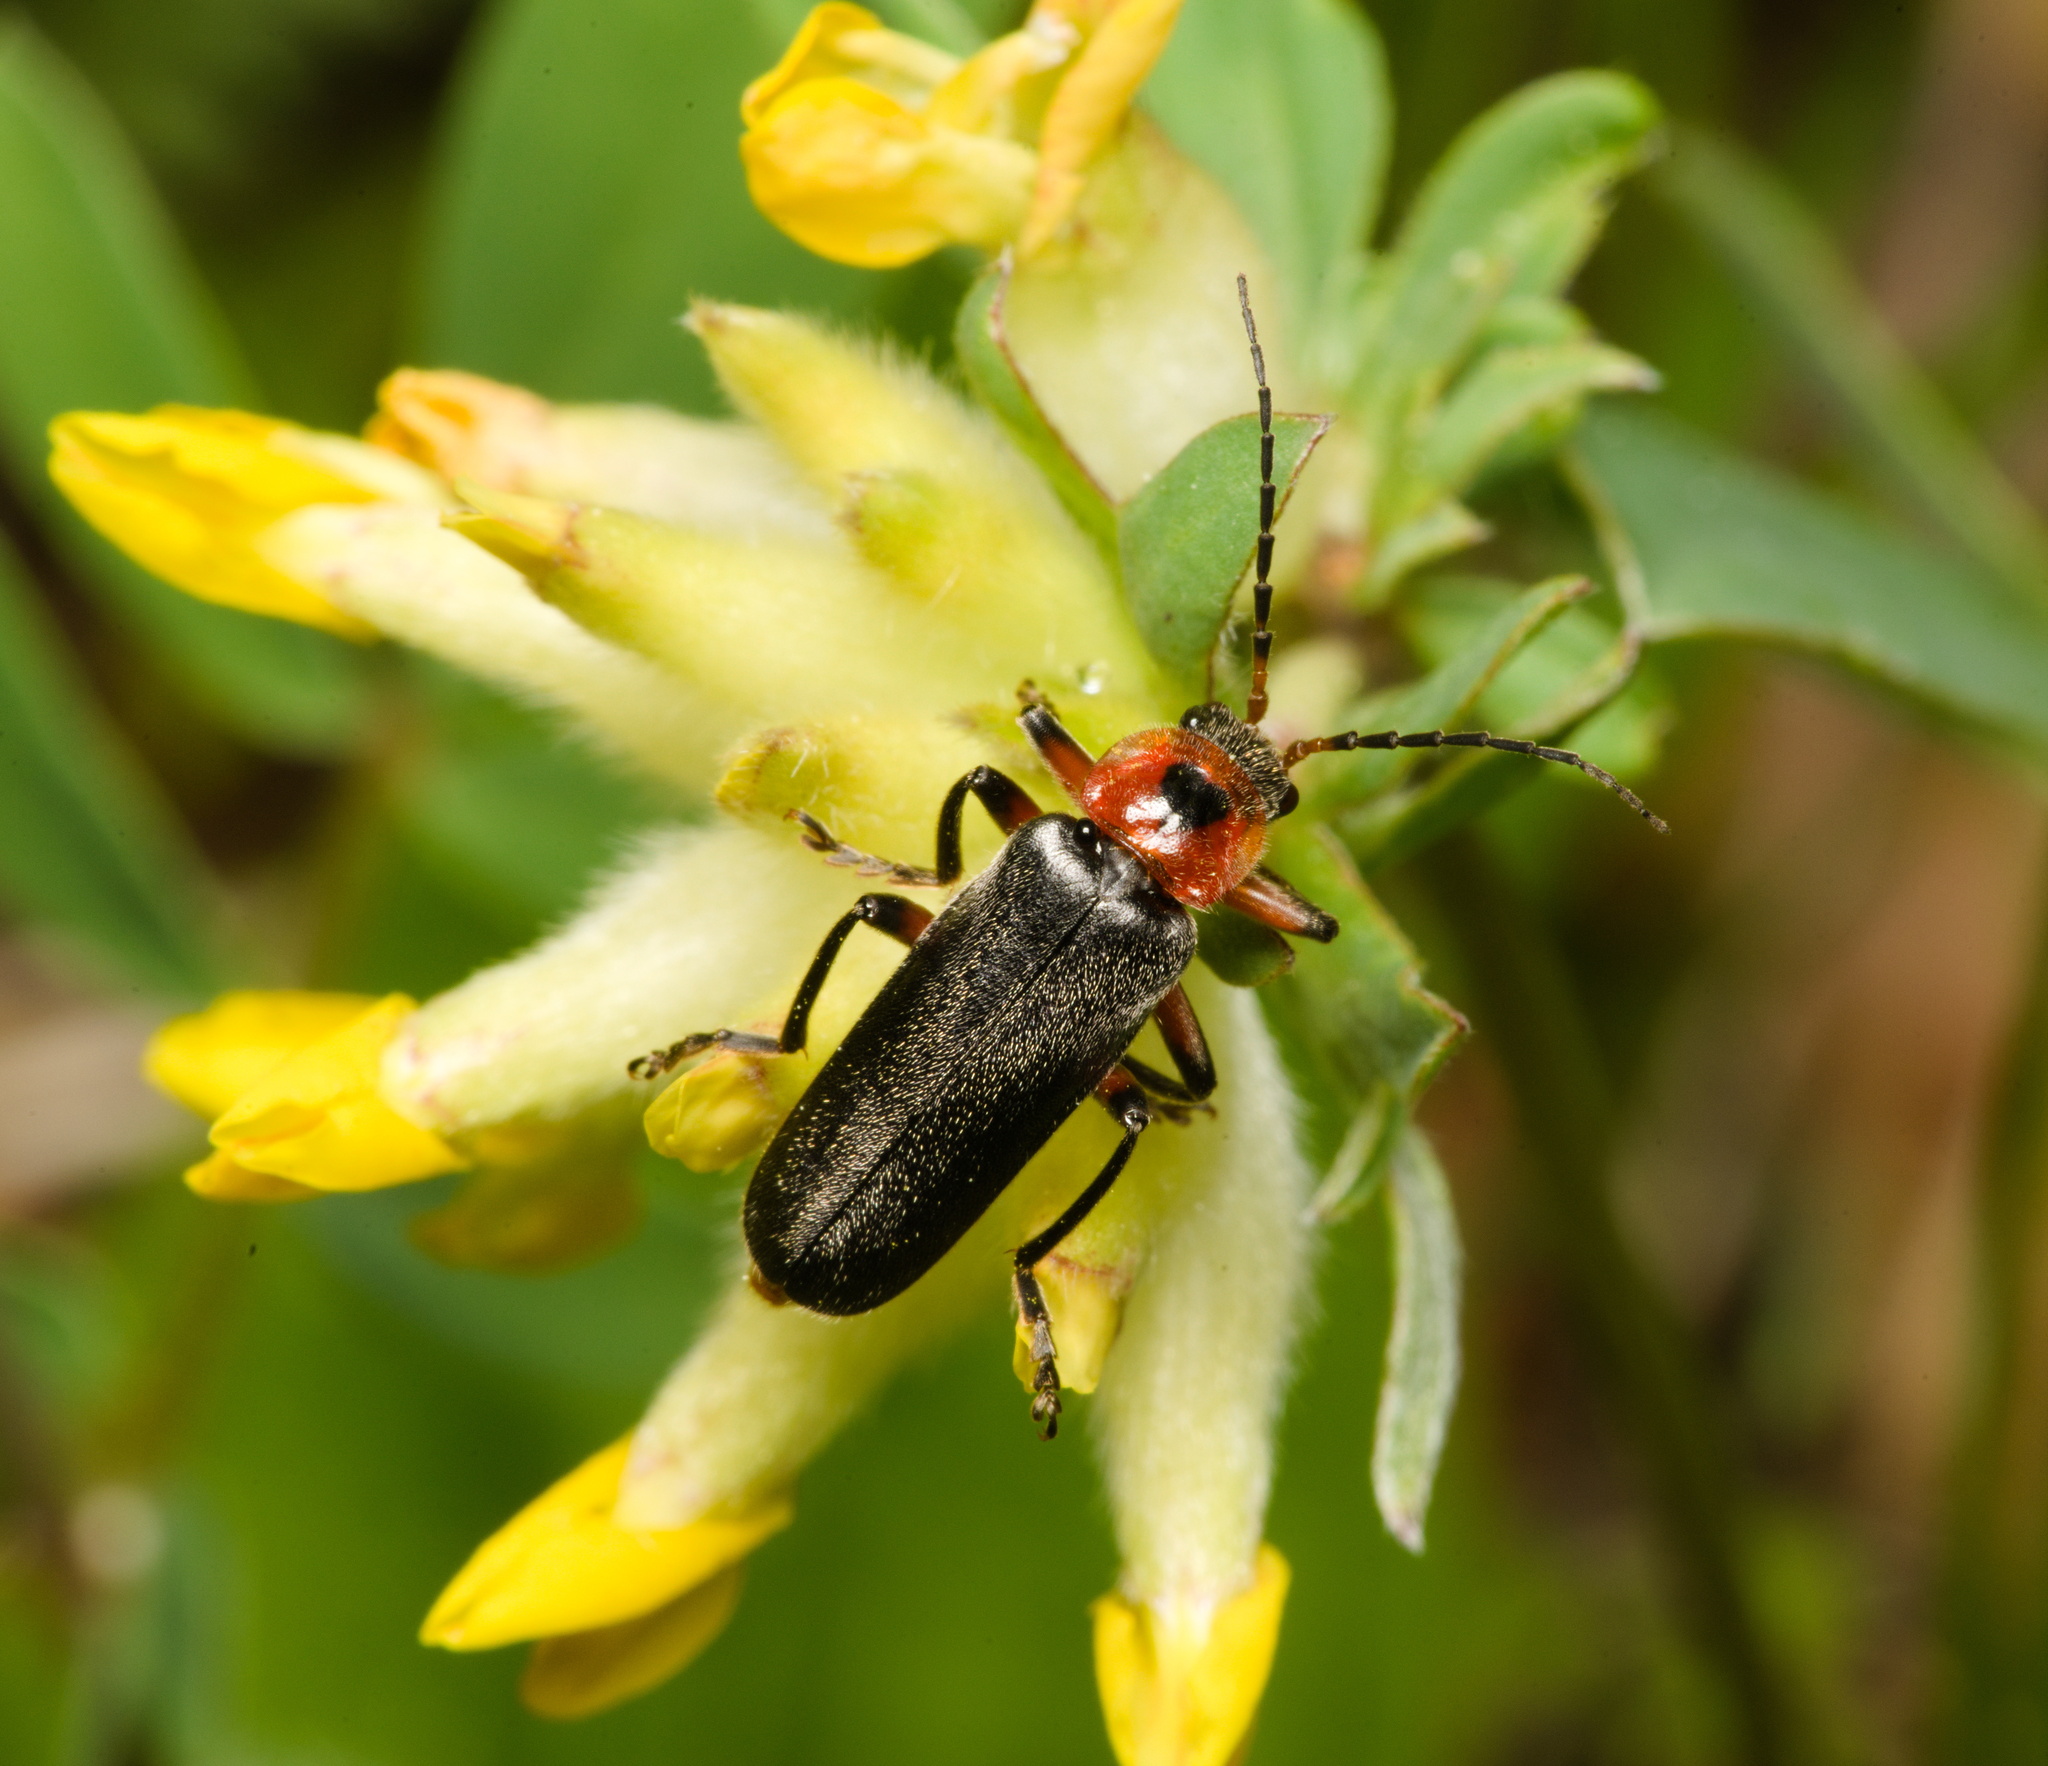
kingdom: Animalia
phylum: Arthropoda
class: Insecta
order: Coleoptera
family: Cantharidae
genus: Cantharis
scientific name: Cantharis rustica
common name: Soldier beetle
